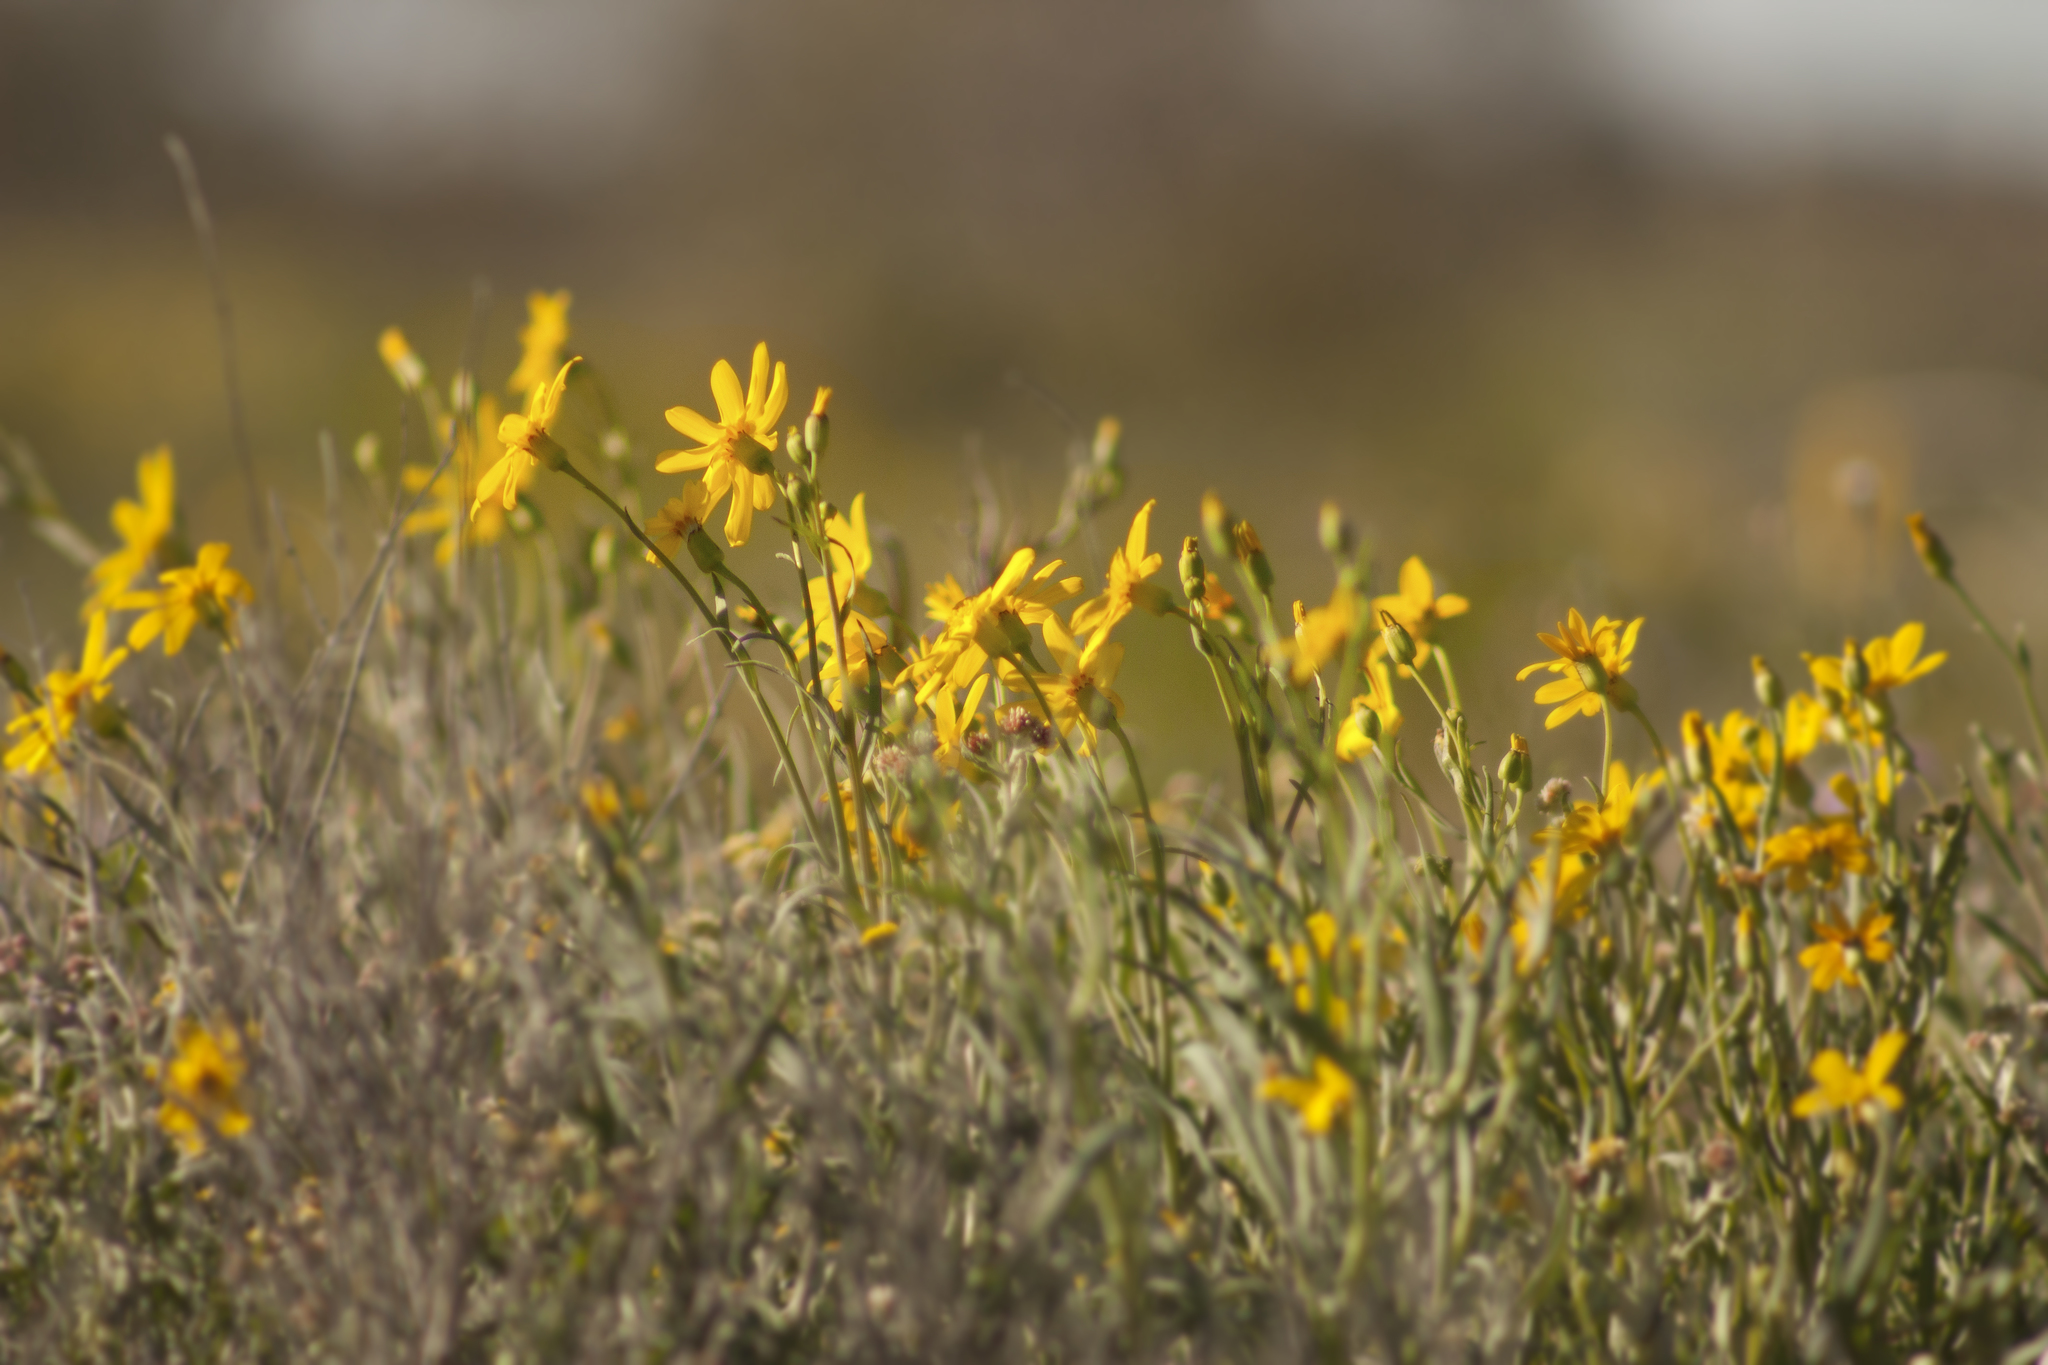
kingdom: Plantae
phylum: Tracheophyta
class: Magnoliopsida
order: Asterales
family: Asteraceae
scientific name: Asteraceae
